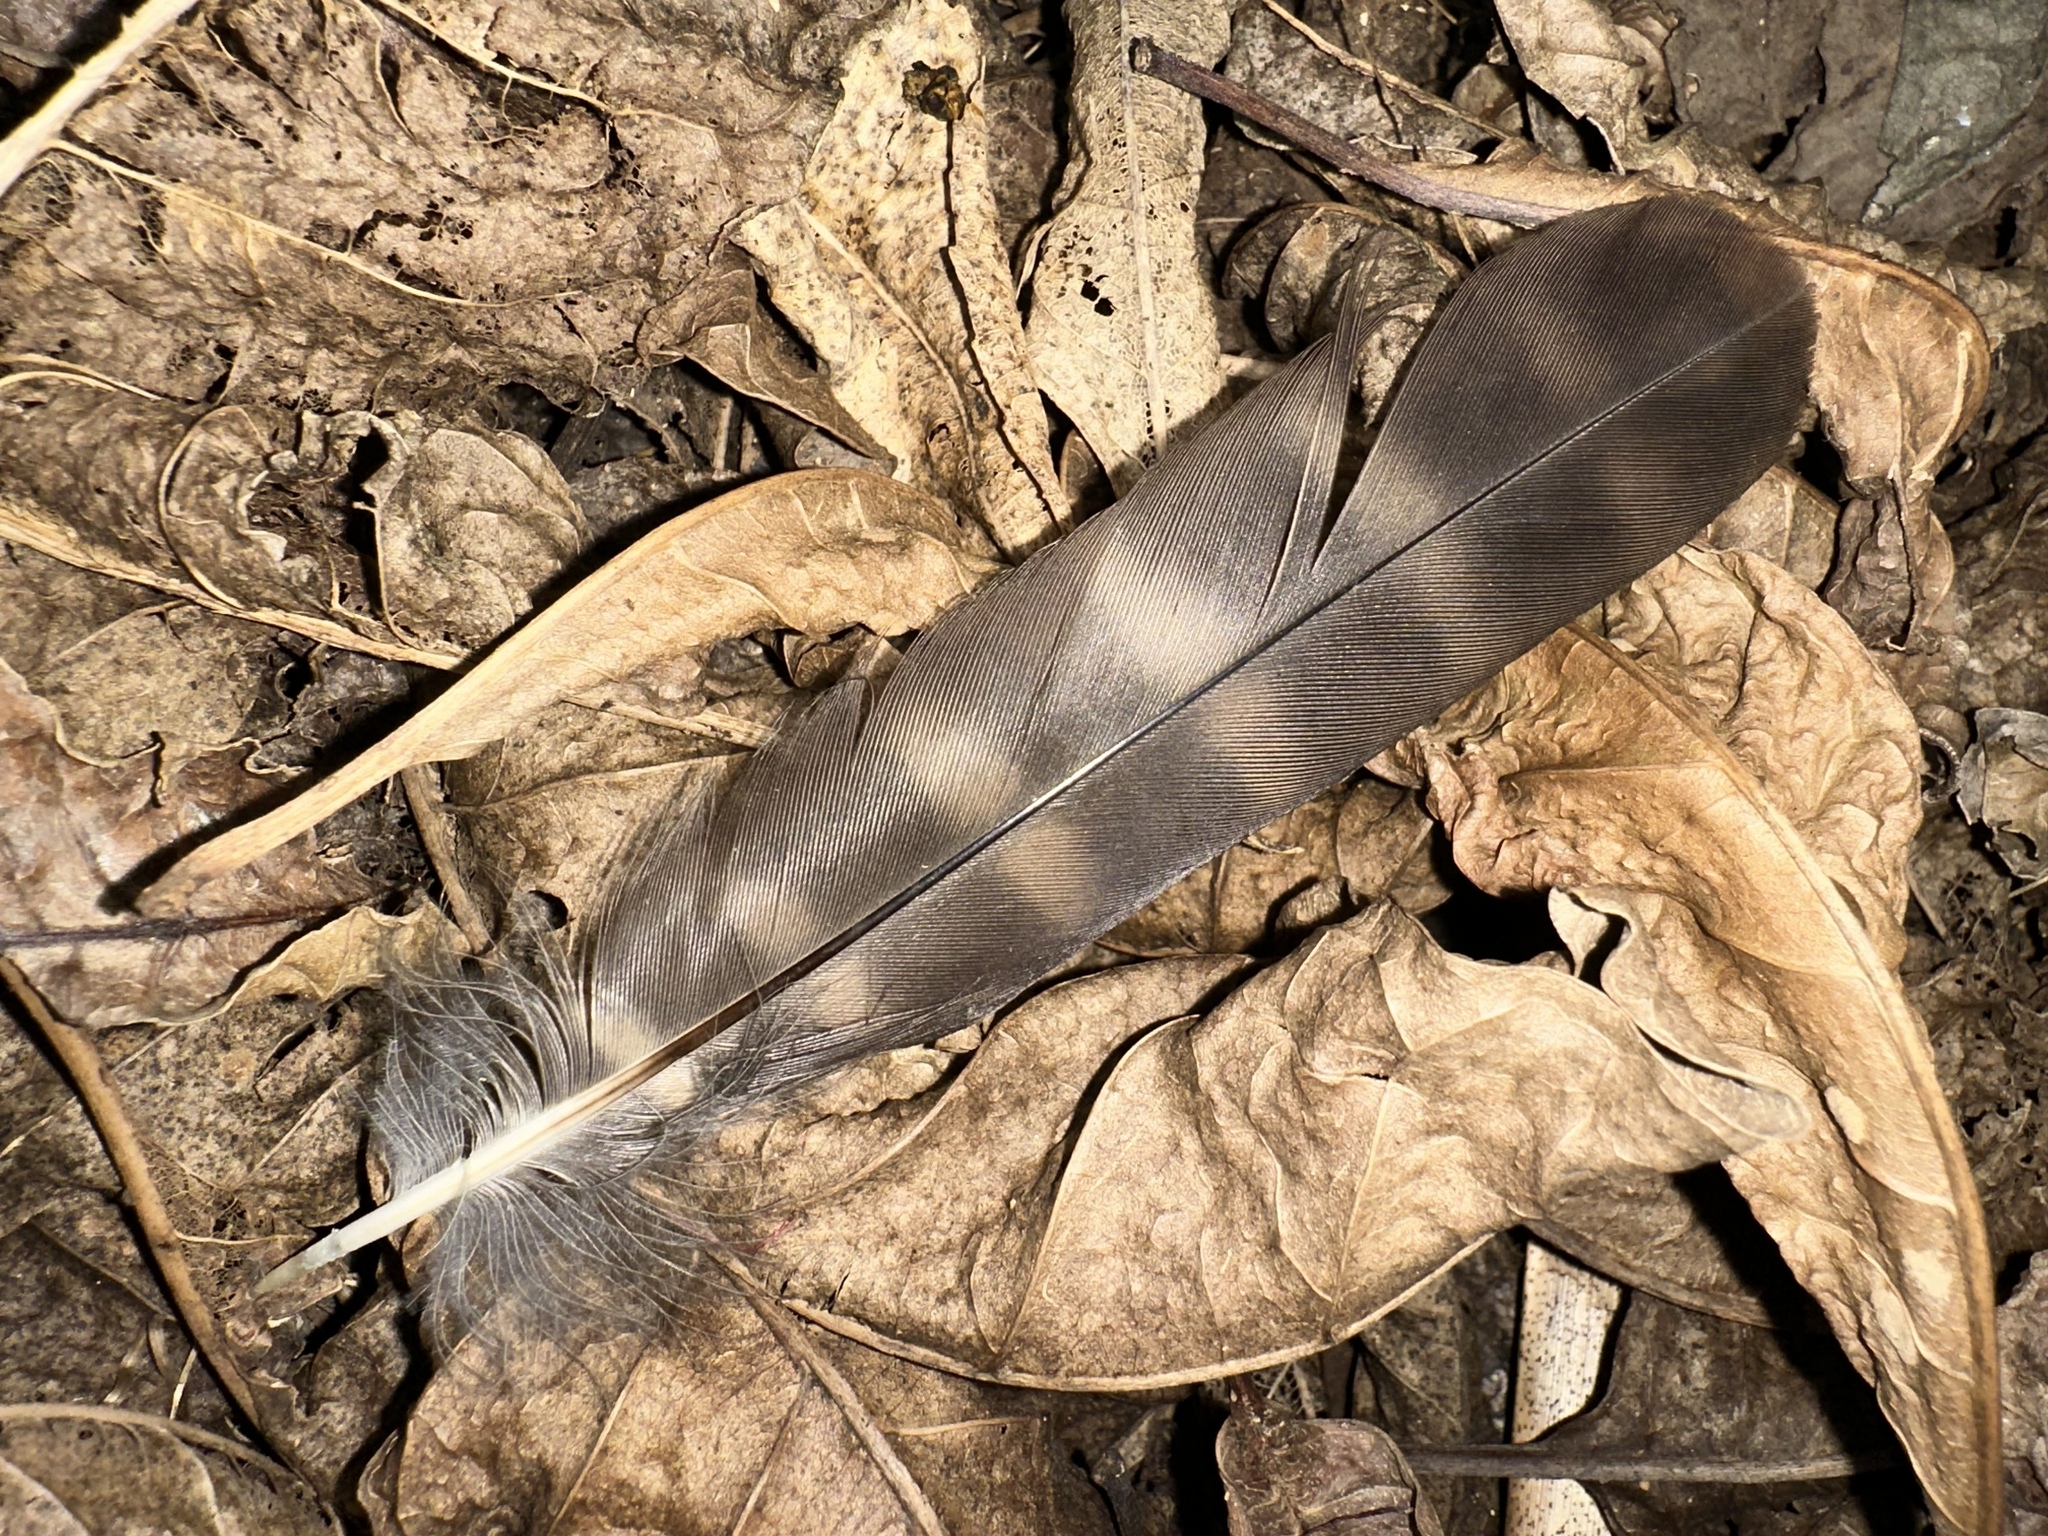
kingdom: Animalia
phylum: Chordata
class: Aves
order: Strigiformes
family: Strigidae
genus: Ninox
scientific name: Ninox novaeseelandiae
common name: Morepork
